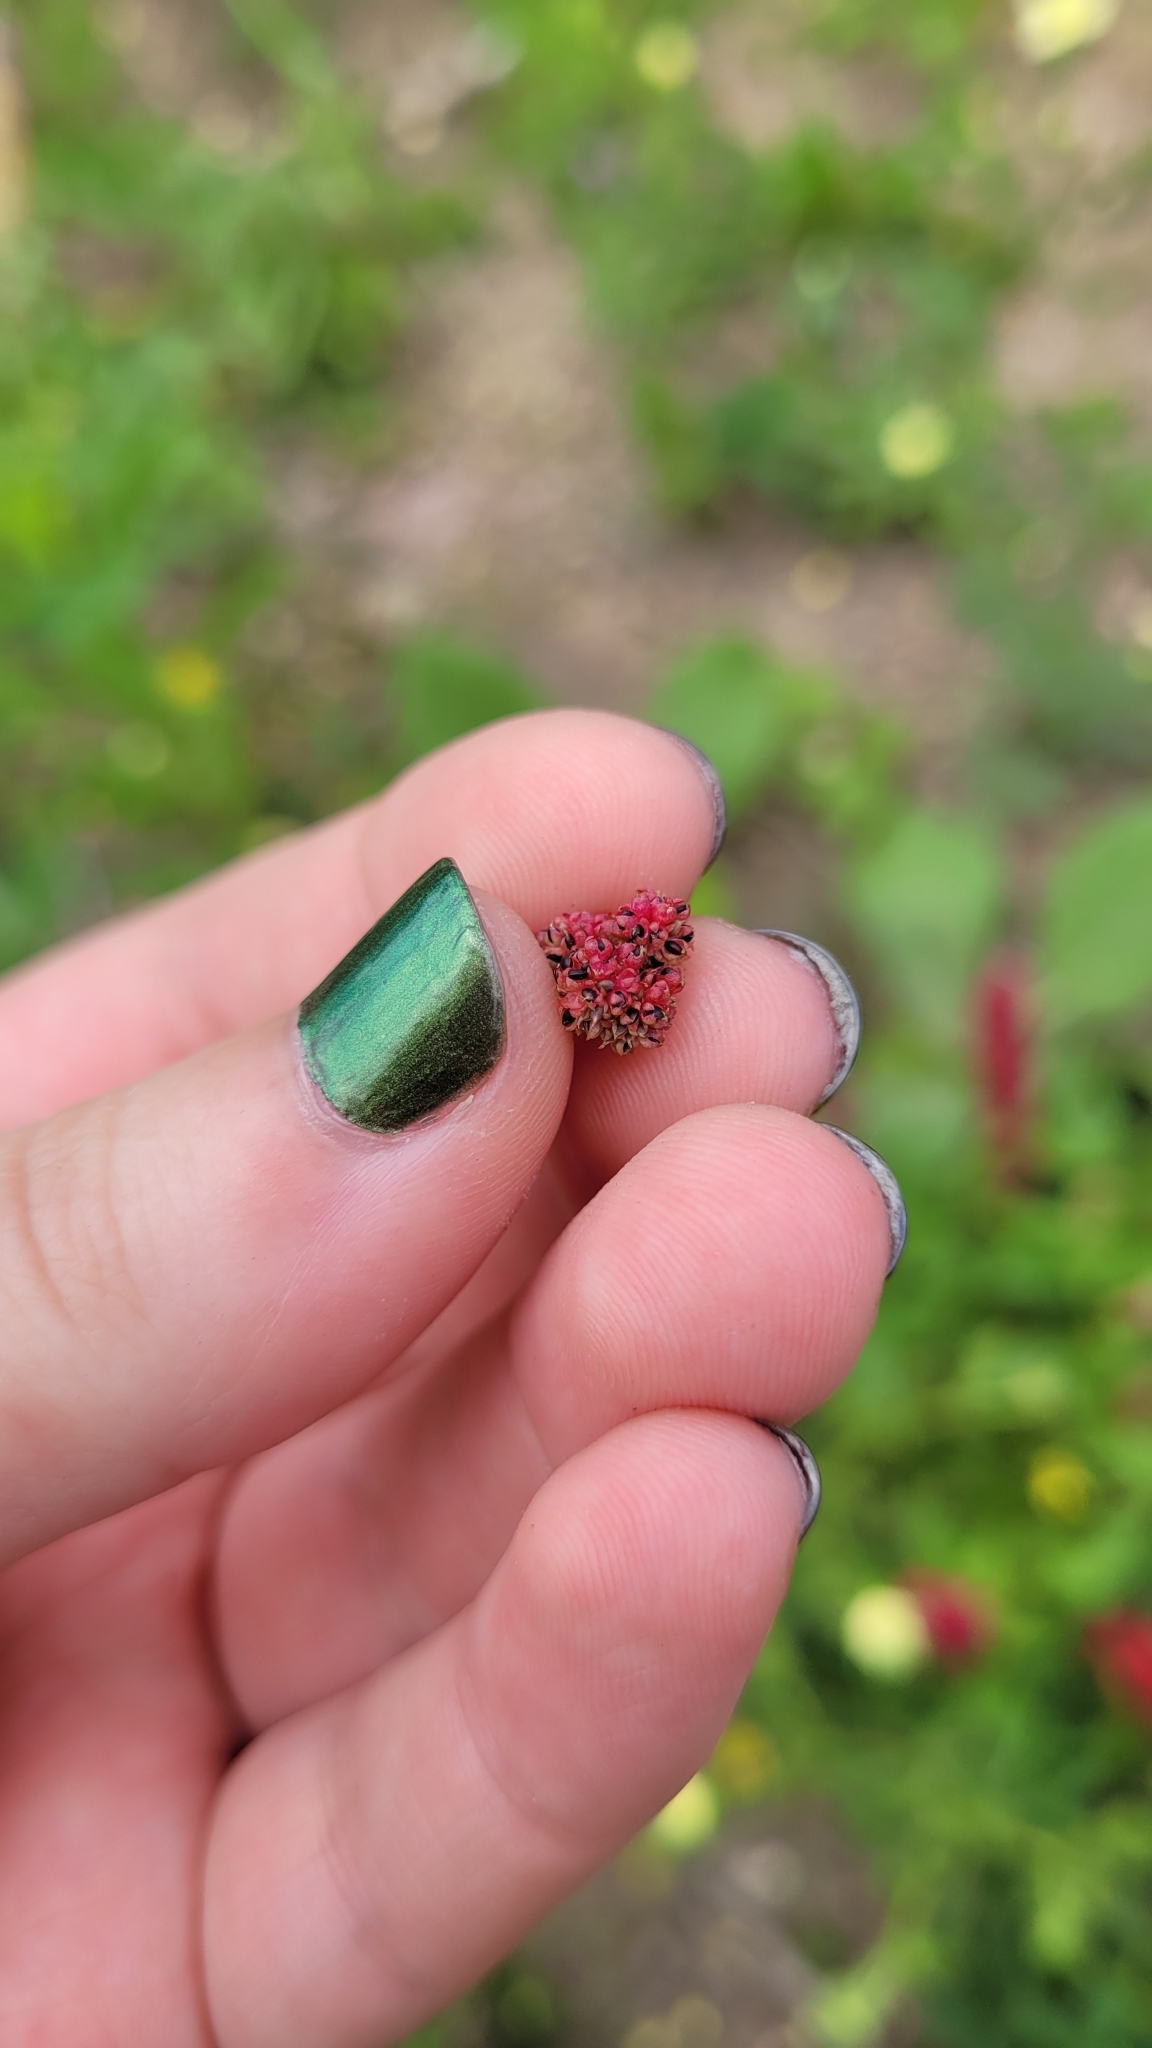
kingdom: Plantae
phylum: Tracheophyta
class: Magnoliopsida
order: Caryophyllales
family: Amaranthaceae
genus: Blitum
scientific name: Blitum capitatum
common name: Strawberry-blight
